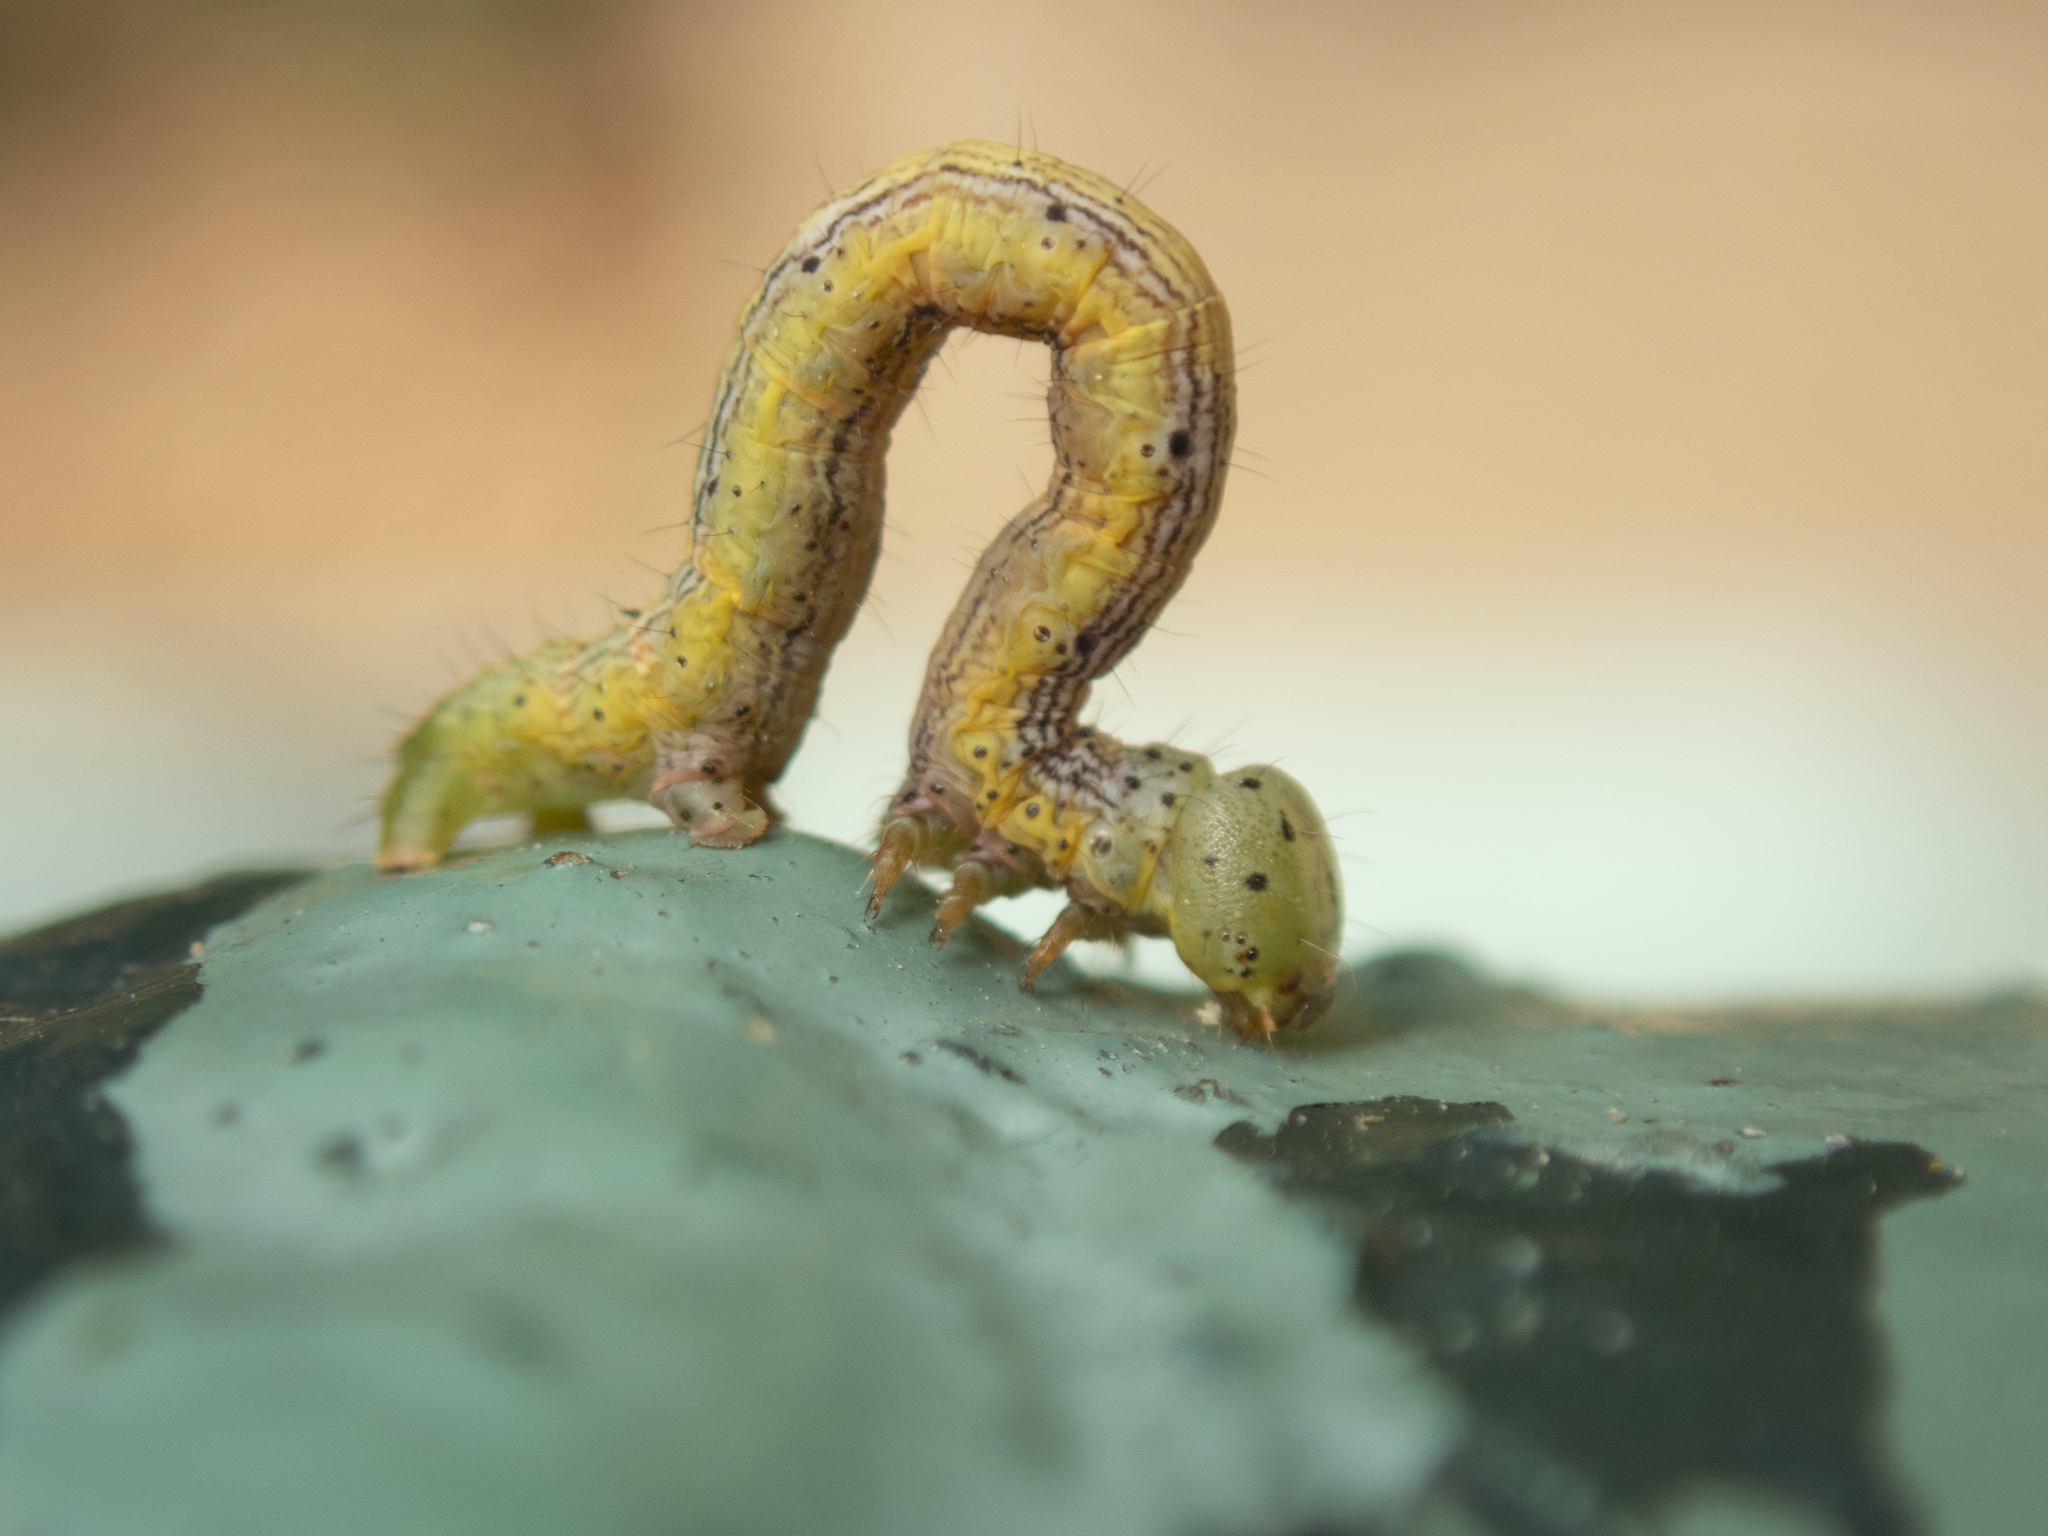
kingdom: Animalia
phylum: Arthropoda
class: Insecta
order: Lepidoptera
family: Geometridae
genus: Chiasmia
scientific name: Chiasmia emersaria
